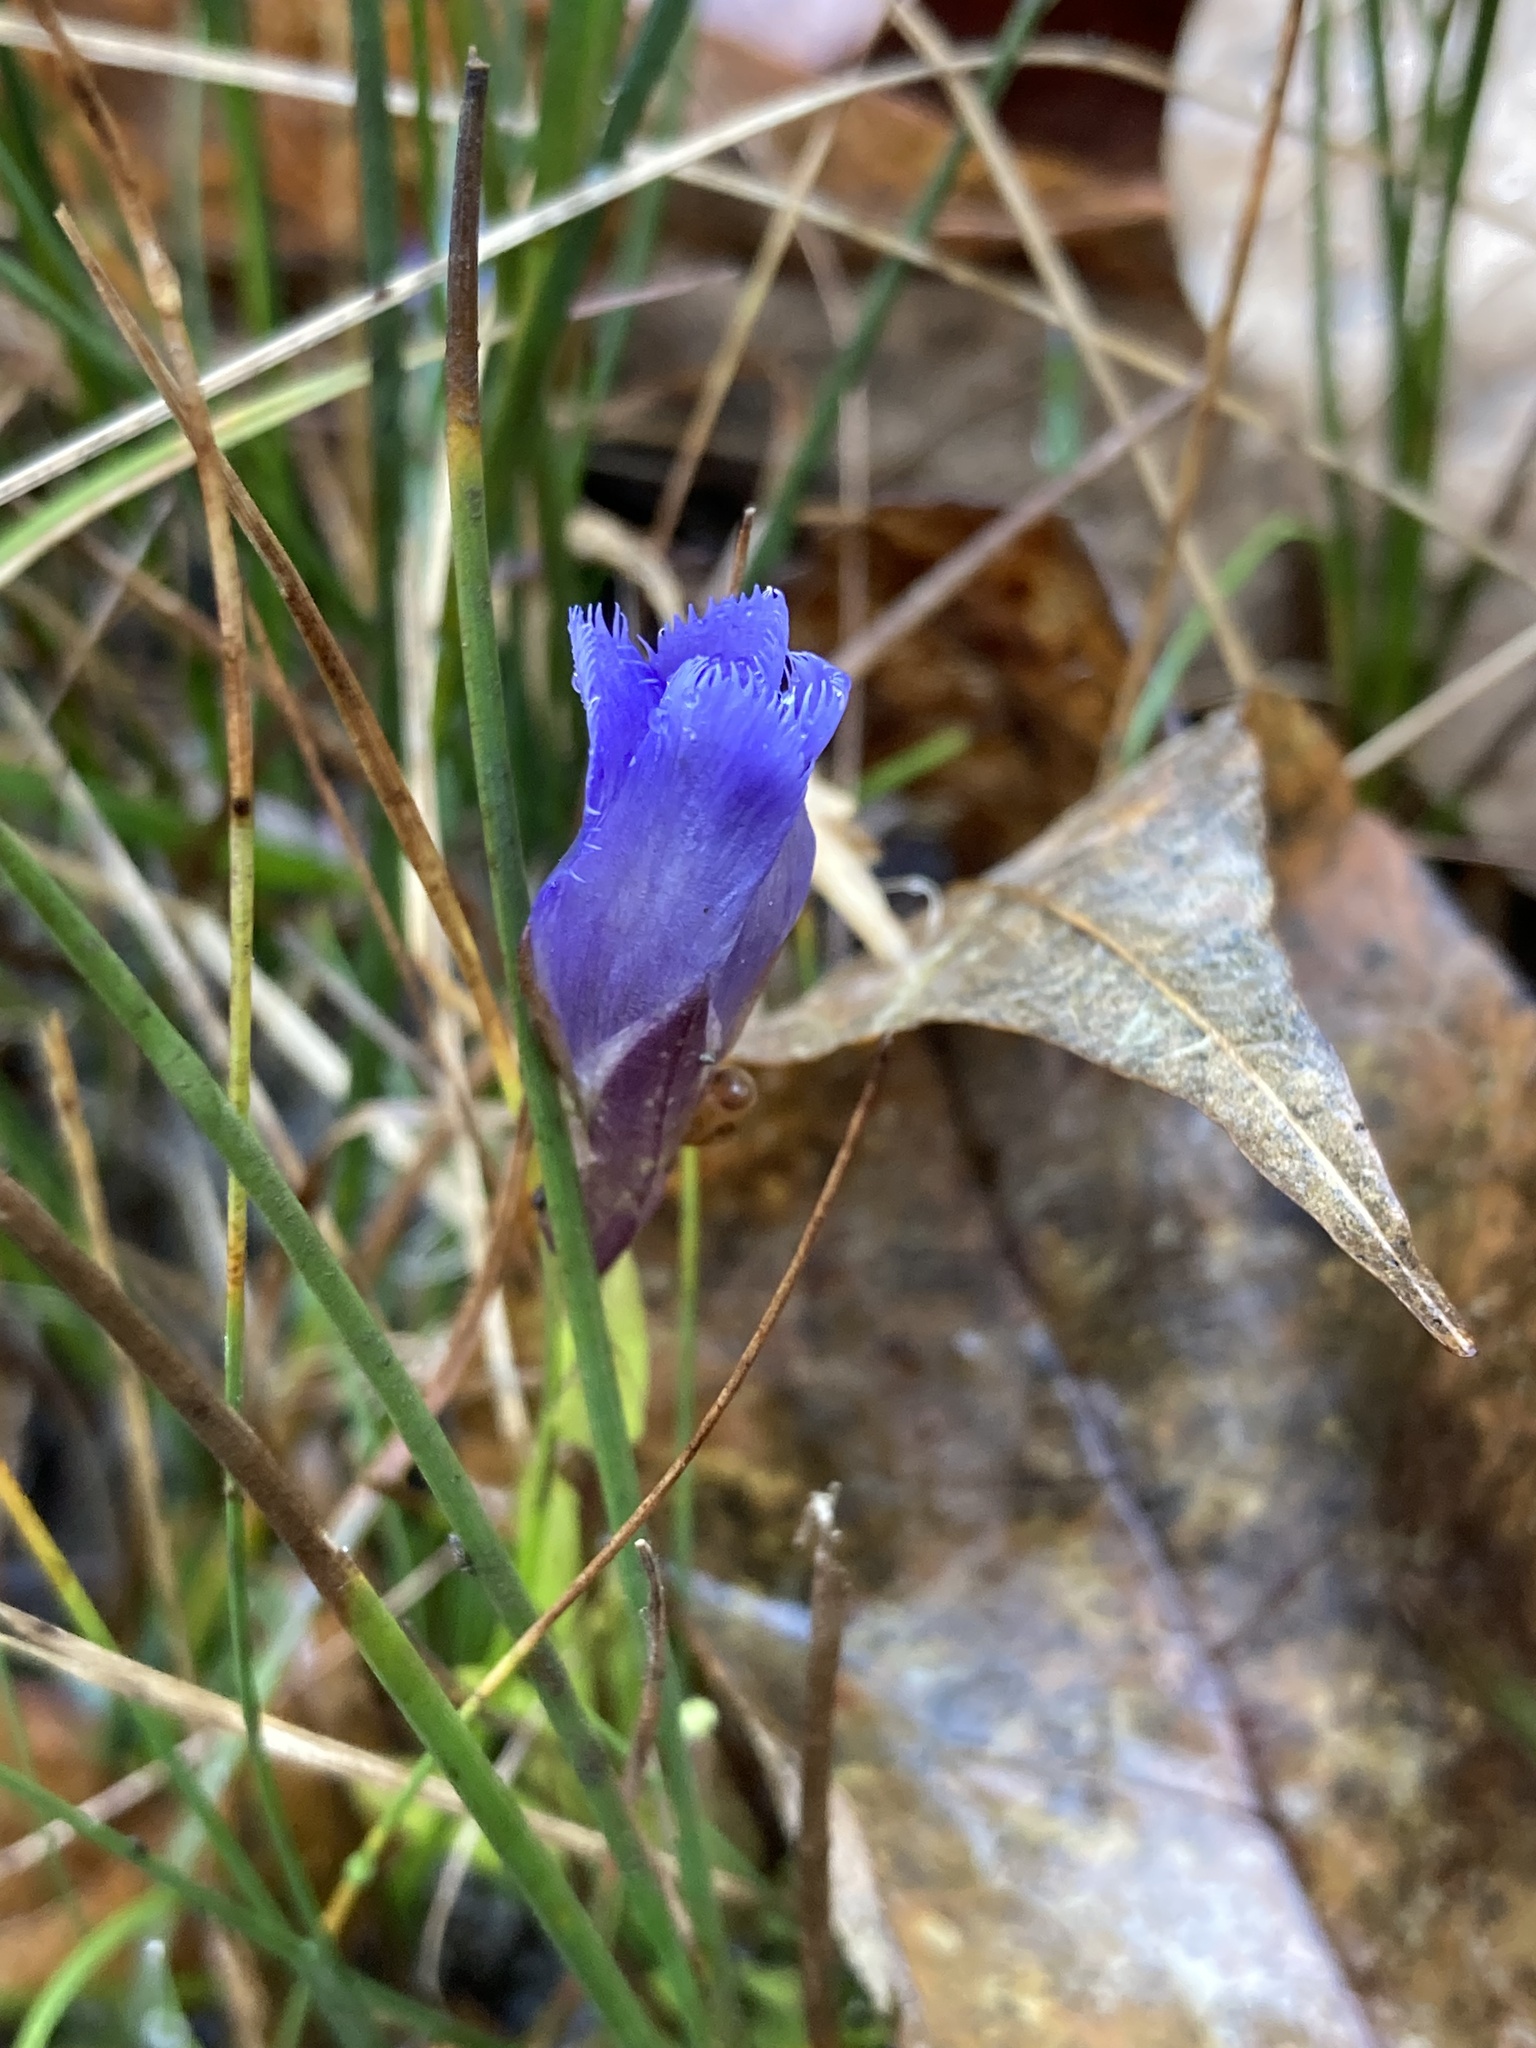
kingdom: Plantae
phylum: Tracheophyta
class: Magnoliopsida
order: Gentianales
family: Gentianaceae
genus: Gentianopsis
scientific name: Gentianopsis crinita
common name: Fringed-gentian
